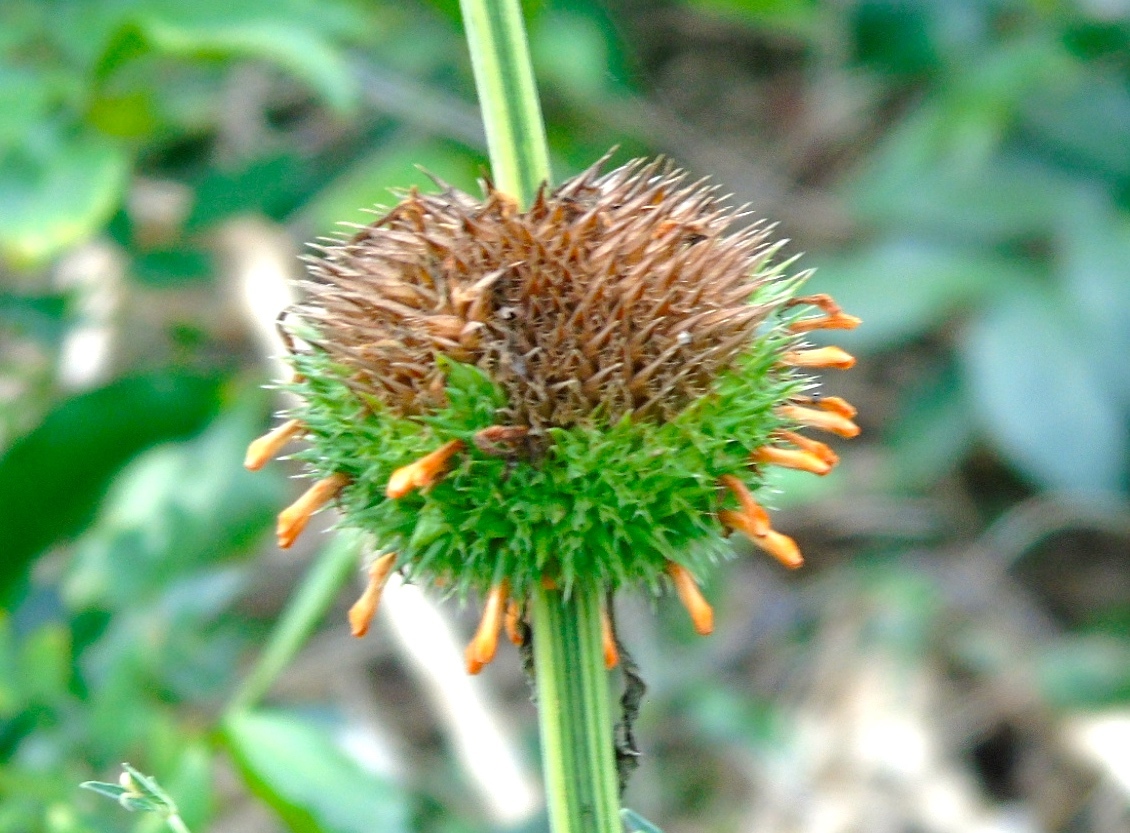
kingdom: Plantae
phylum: Tracheophyta
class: Magnoliopsida
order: Lamiales
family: Lamiaceae
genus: Leonotis
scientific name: Leonotis nepetifolia
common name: Christmas candlestick
